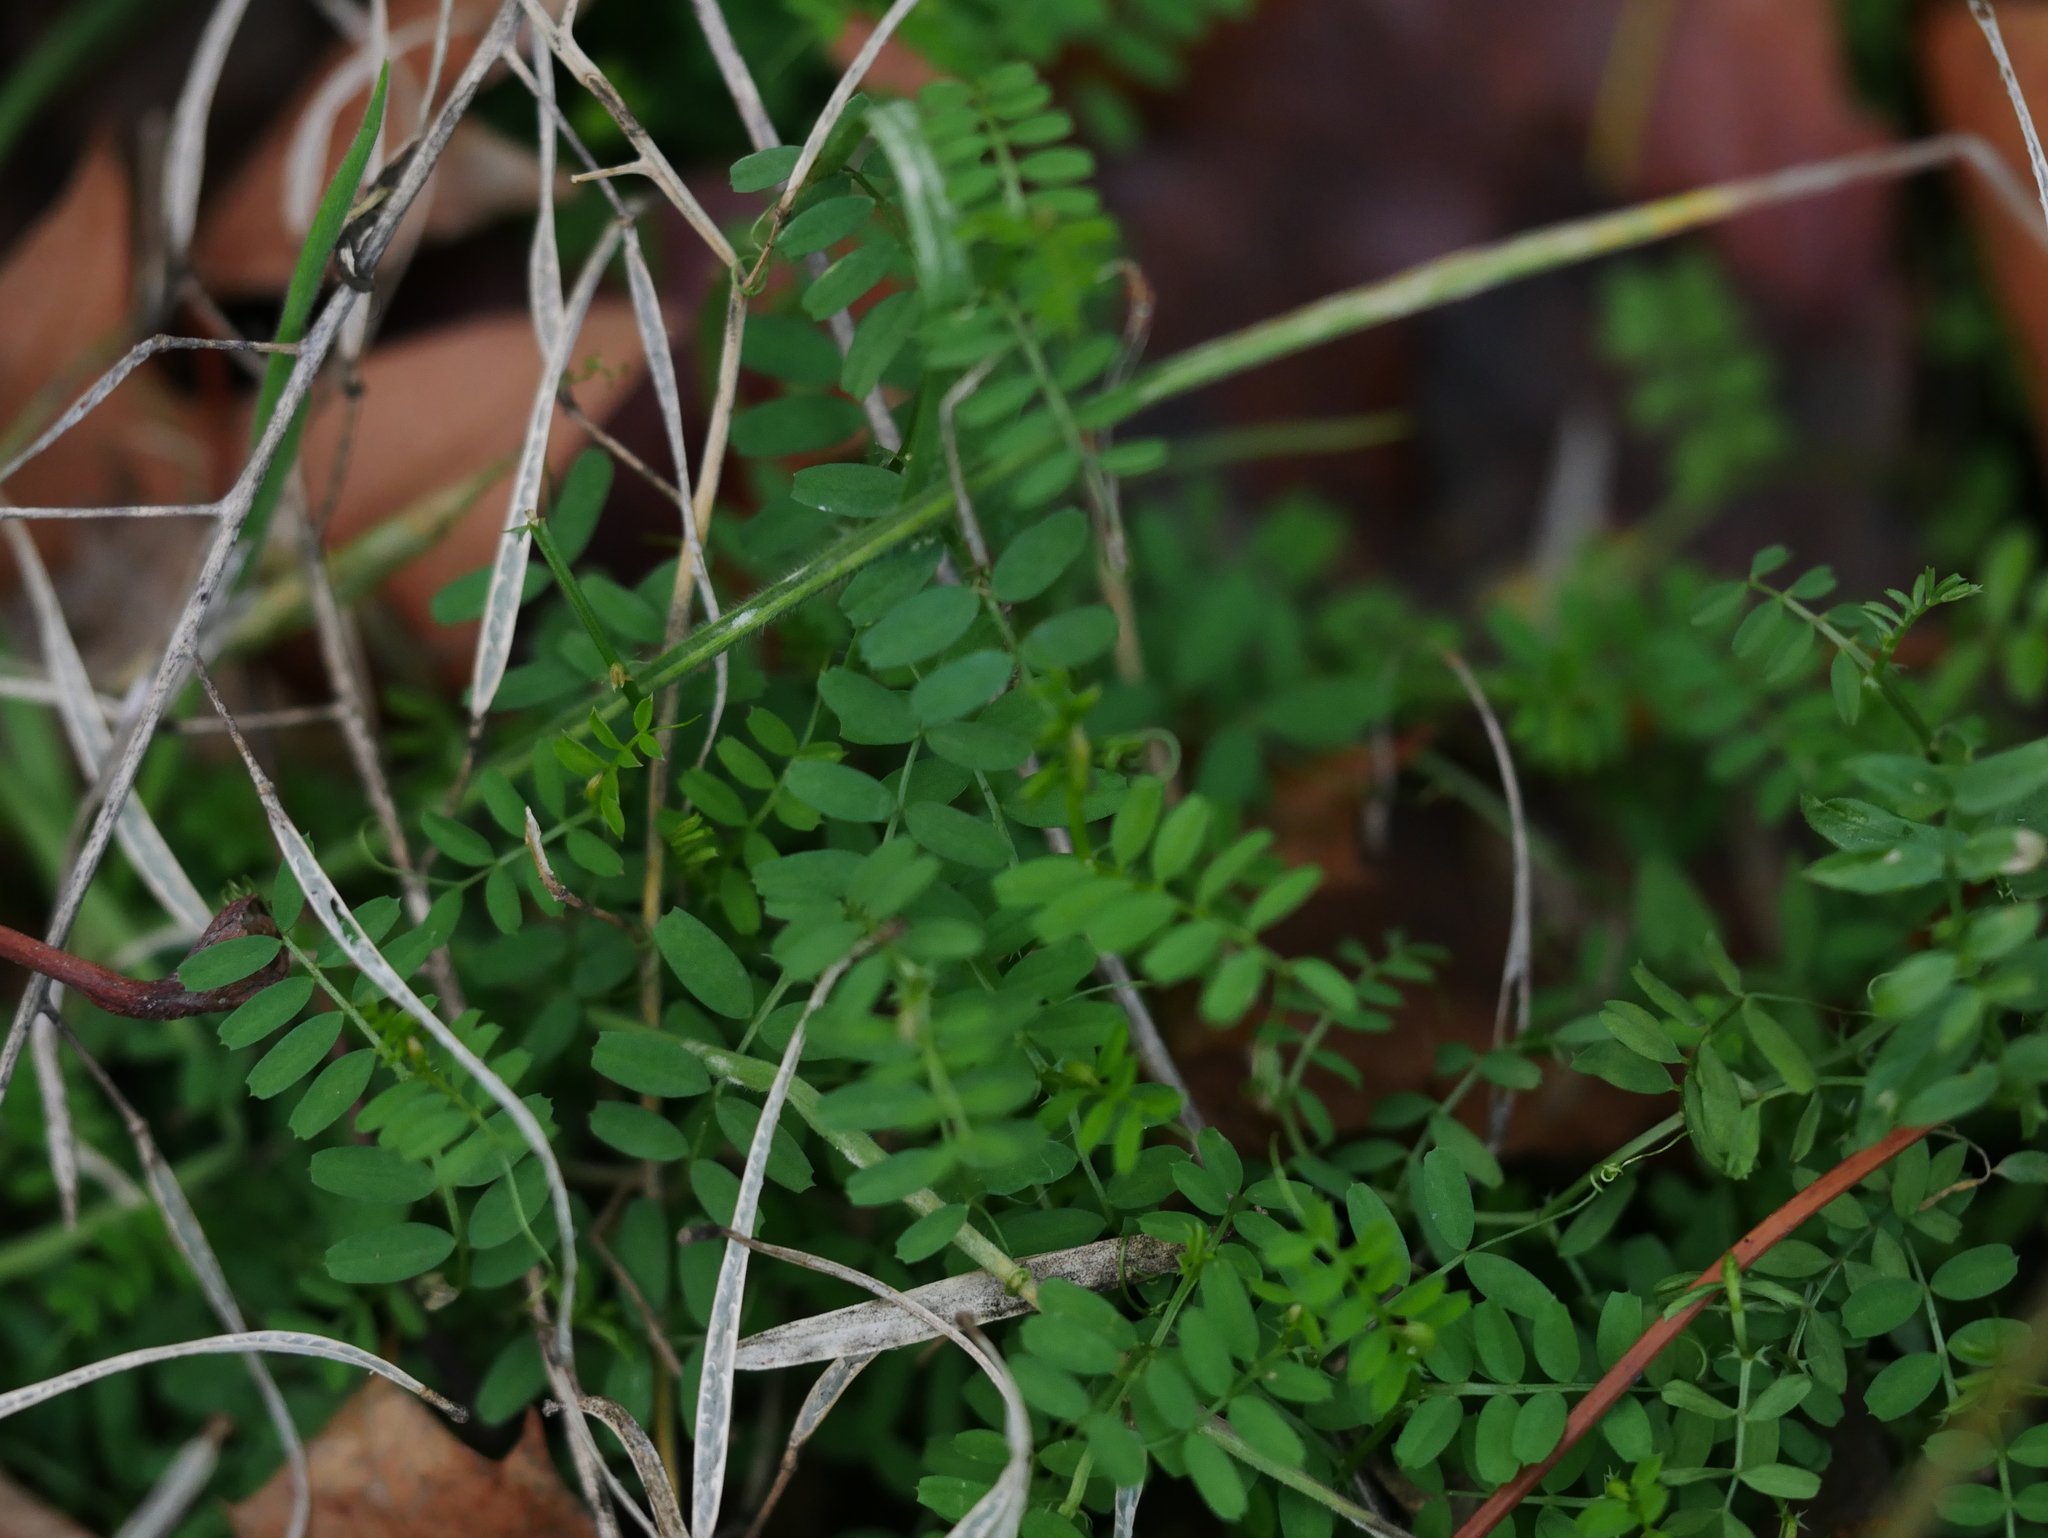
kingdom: Plantae
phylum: Tracheophyta
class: Magnoliopsida
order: Fabales
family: Fabaceae
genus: Vicia
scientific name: Vicia hirsuta
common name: Tiny vetch
